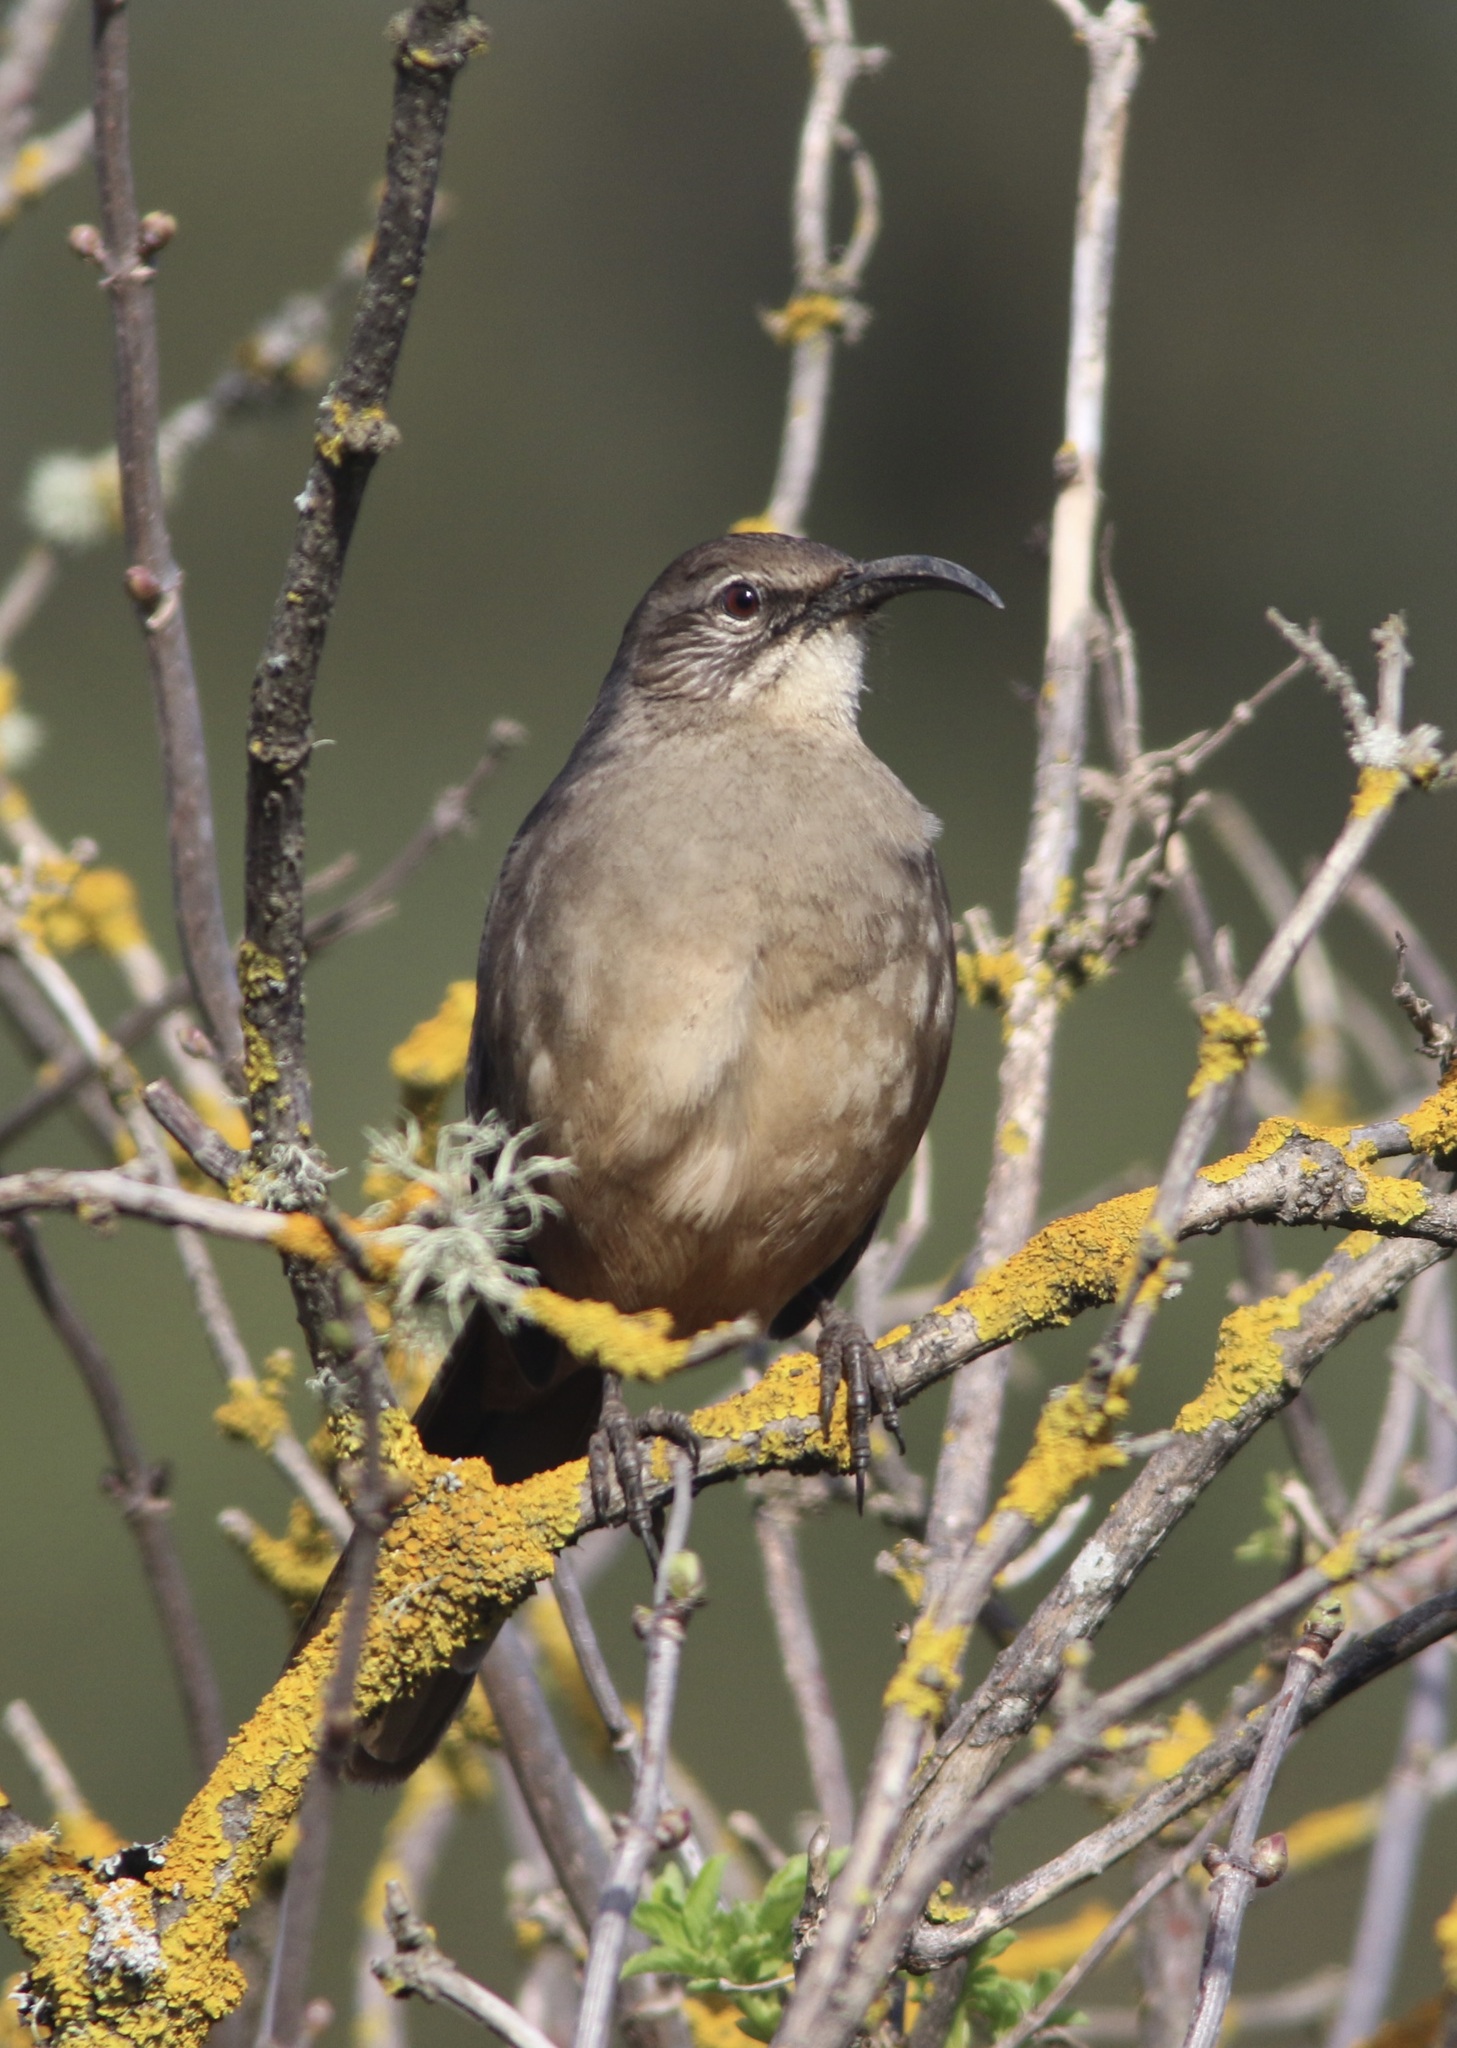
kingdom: Animalia
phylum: Chordata
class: Aves
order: Passeriformes
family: Mimidae
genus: Toxostoma
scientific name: Toxostoma redivivum
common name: California thrasher
